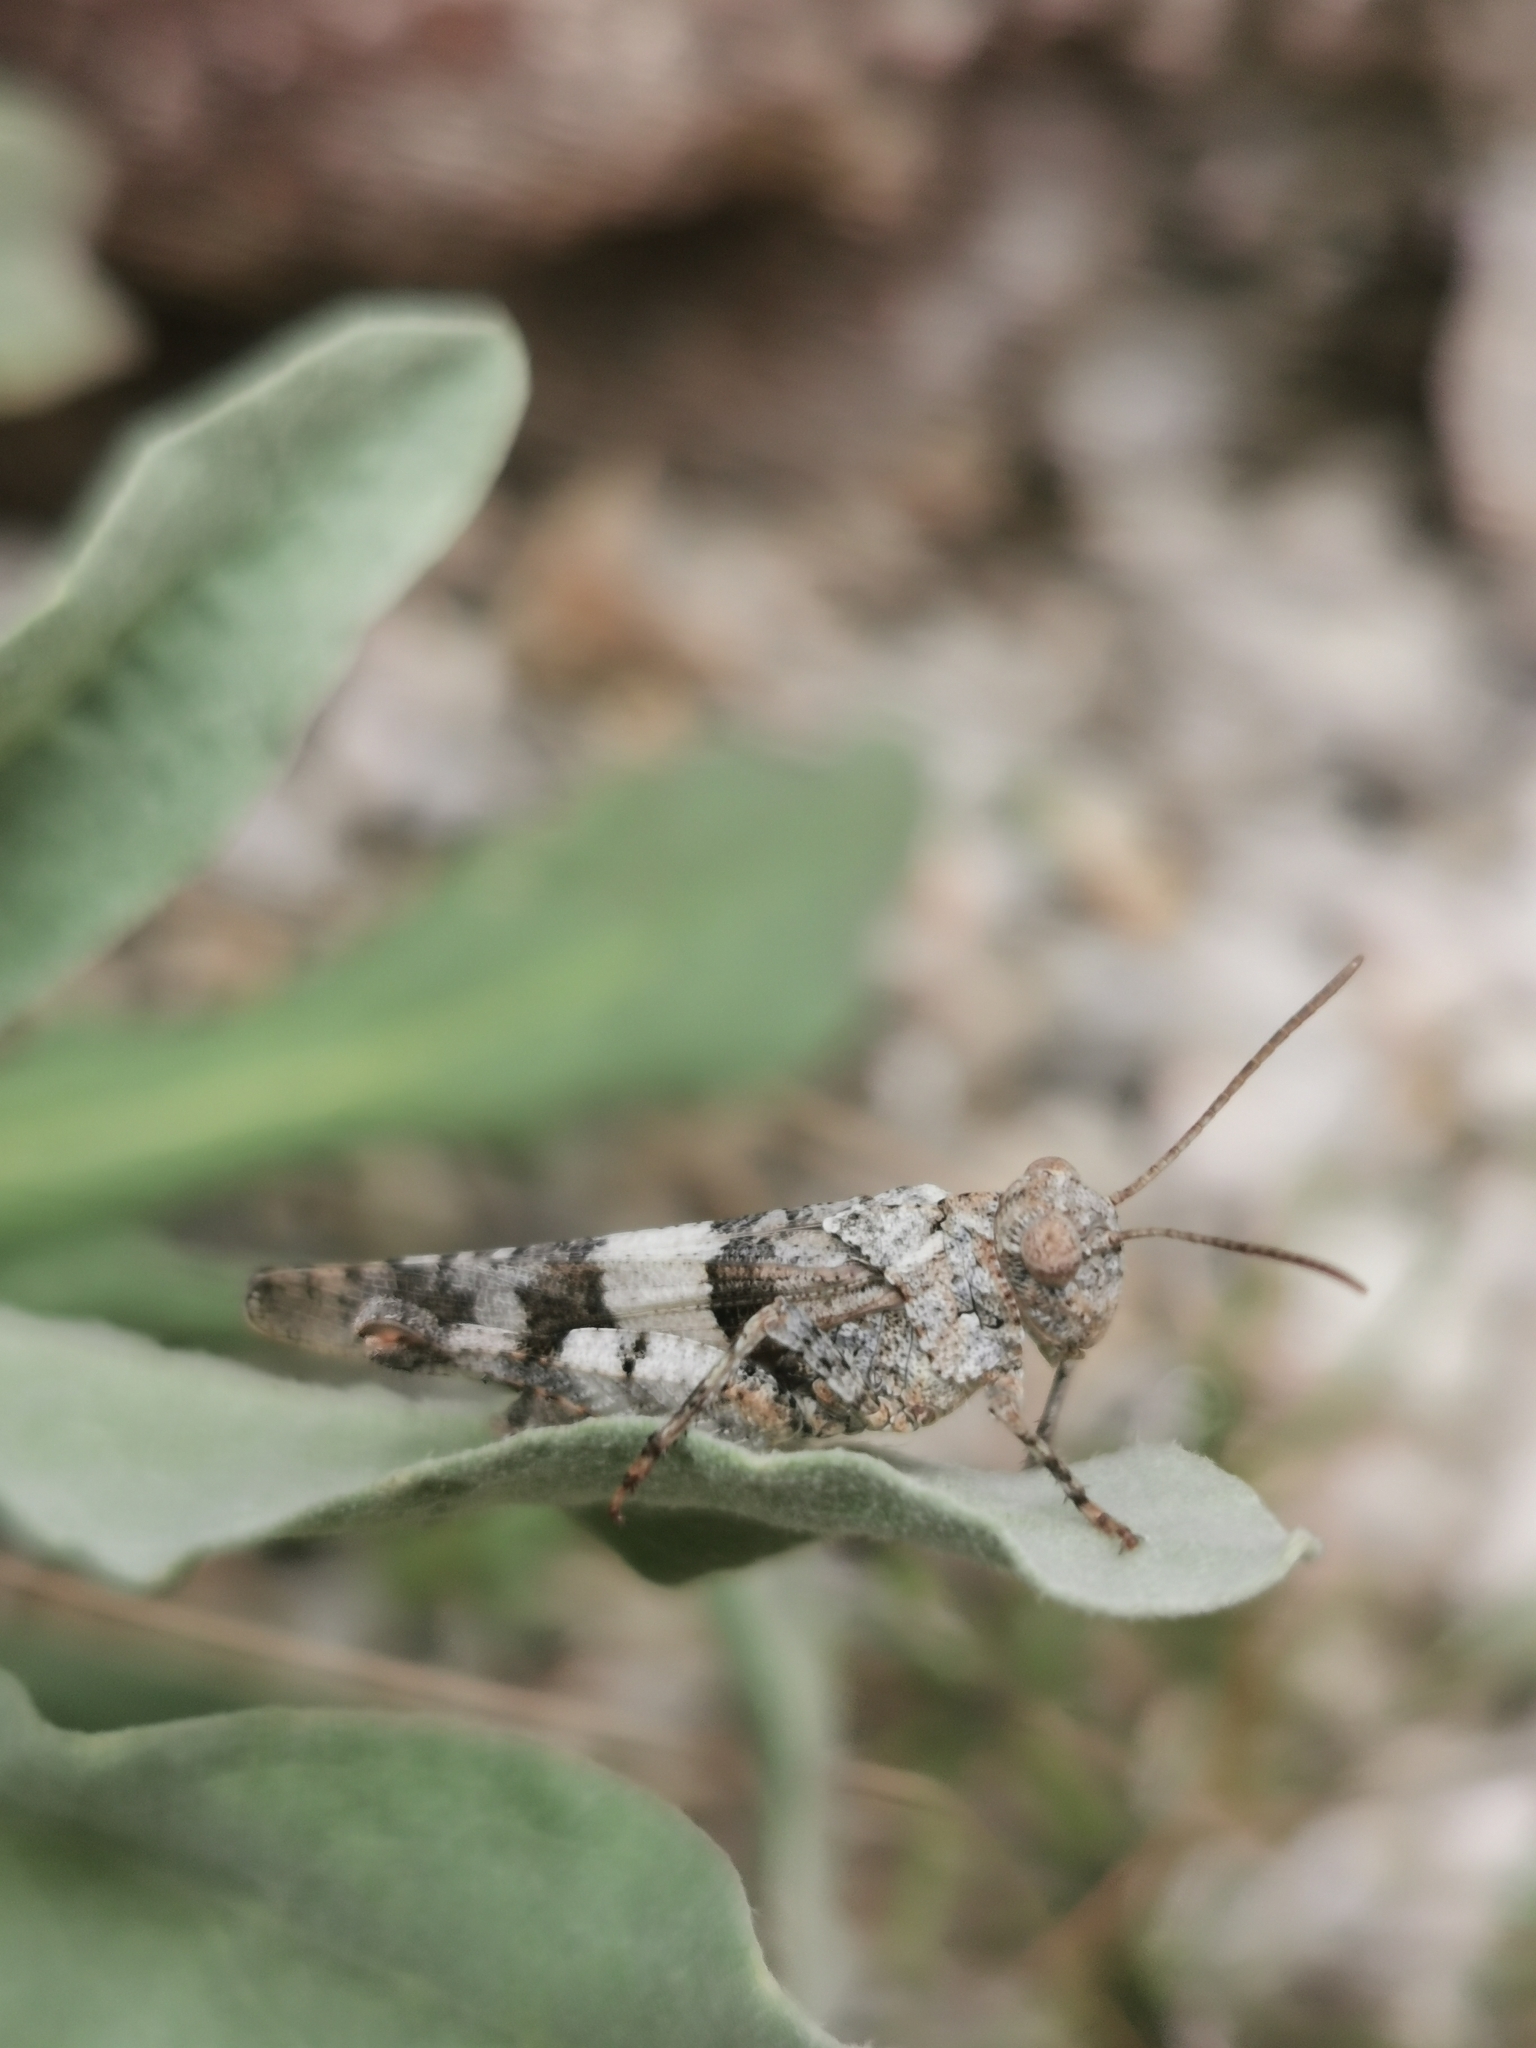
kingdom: Animalia
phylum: Arthropoda
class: Insecta
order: Orthoptera
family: Acrididae
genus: Oedipoda
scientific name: Oedipoda caerulescens
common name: Blue-winged grasshopper
